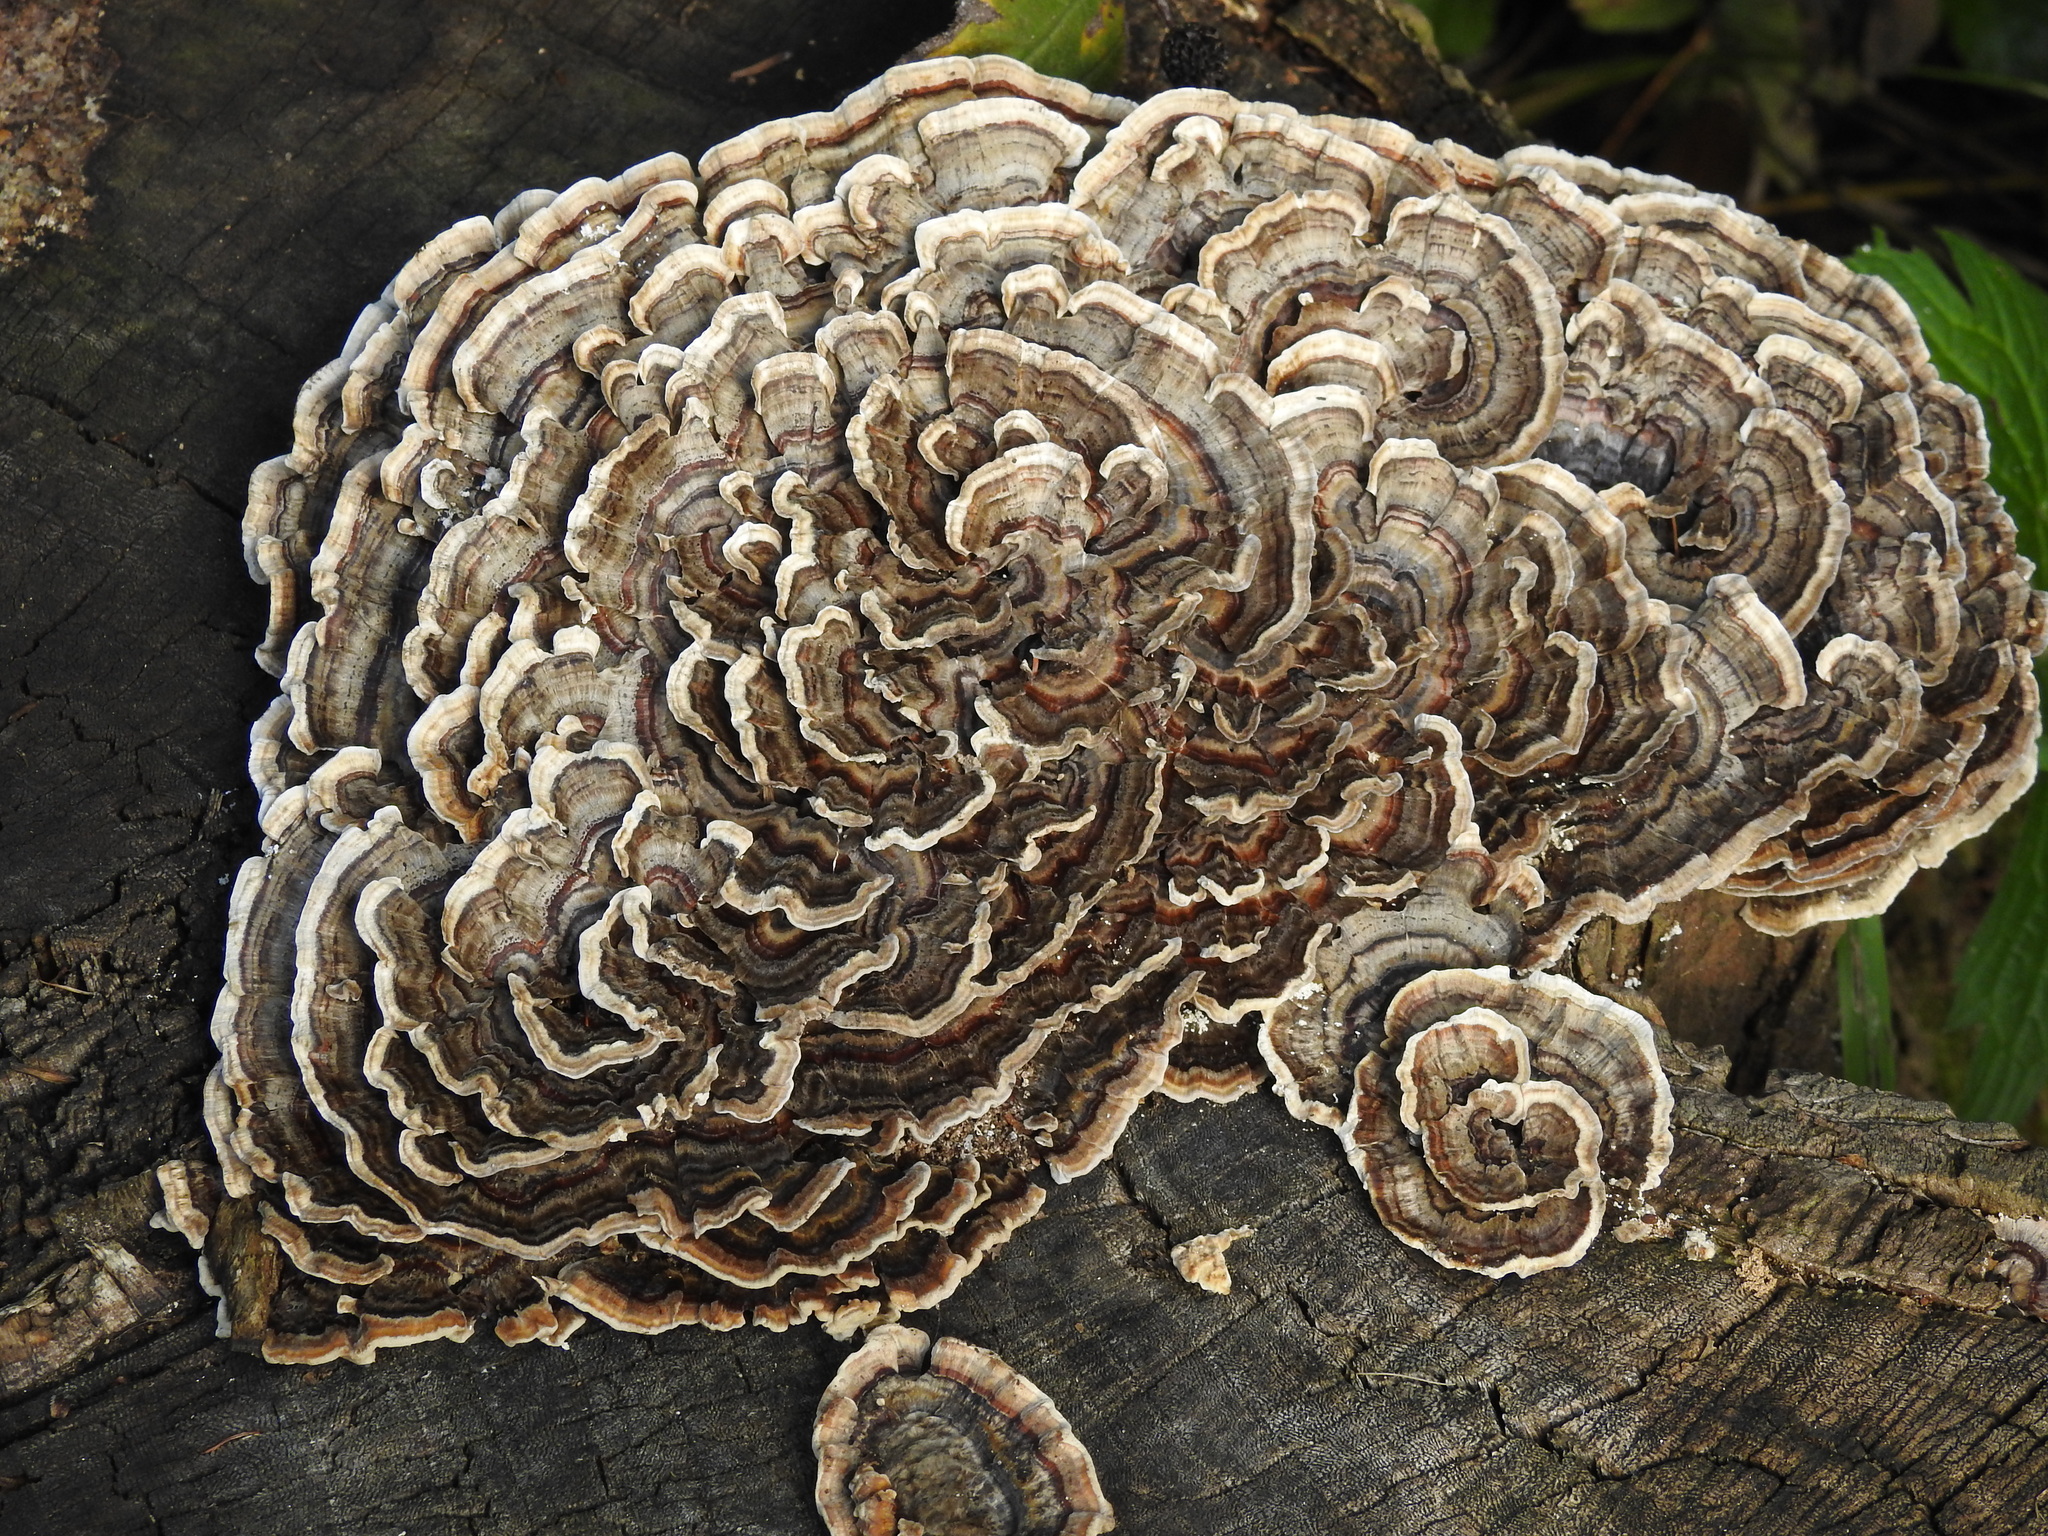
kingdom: Fungi
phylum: Basidiomycota
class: Agaricomycetes
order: Polyporales
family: Polyporaceae
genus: Trametes
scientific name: Trametes versicolor
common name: Turkeytail
